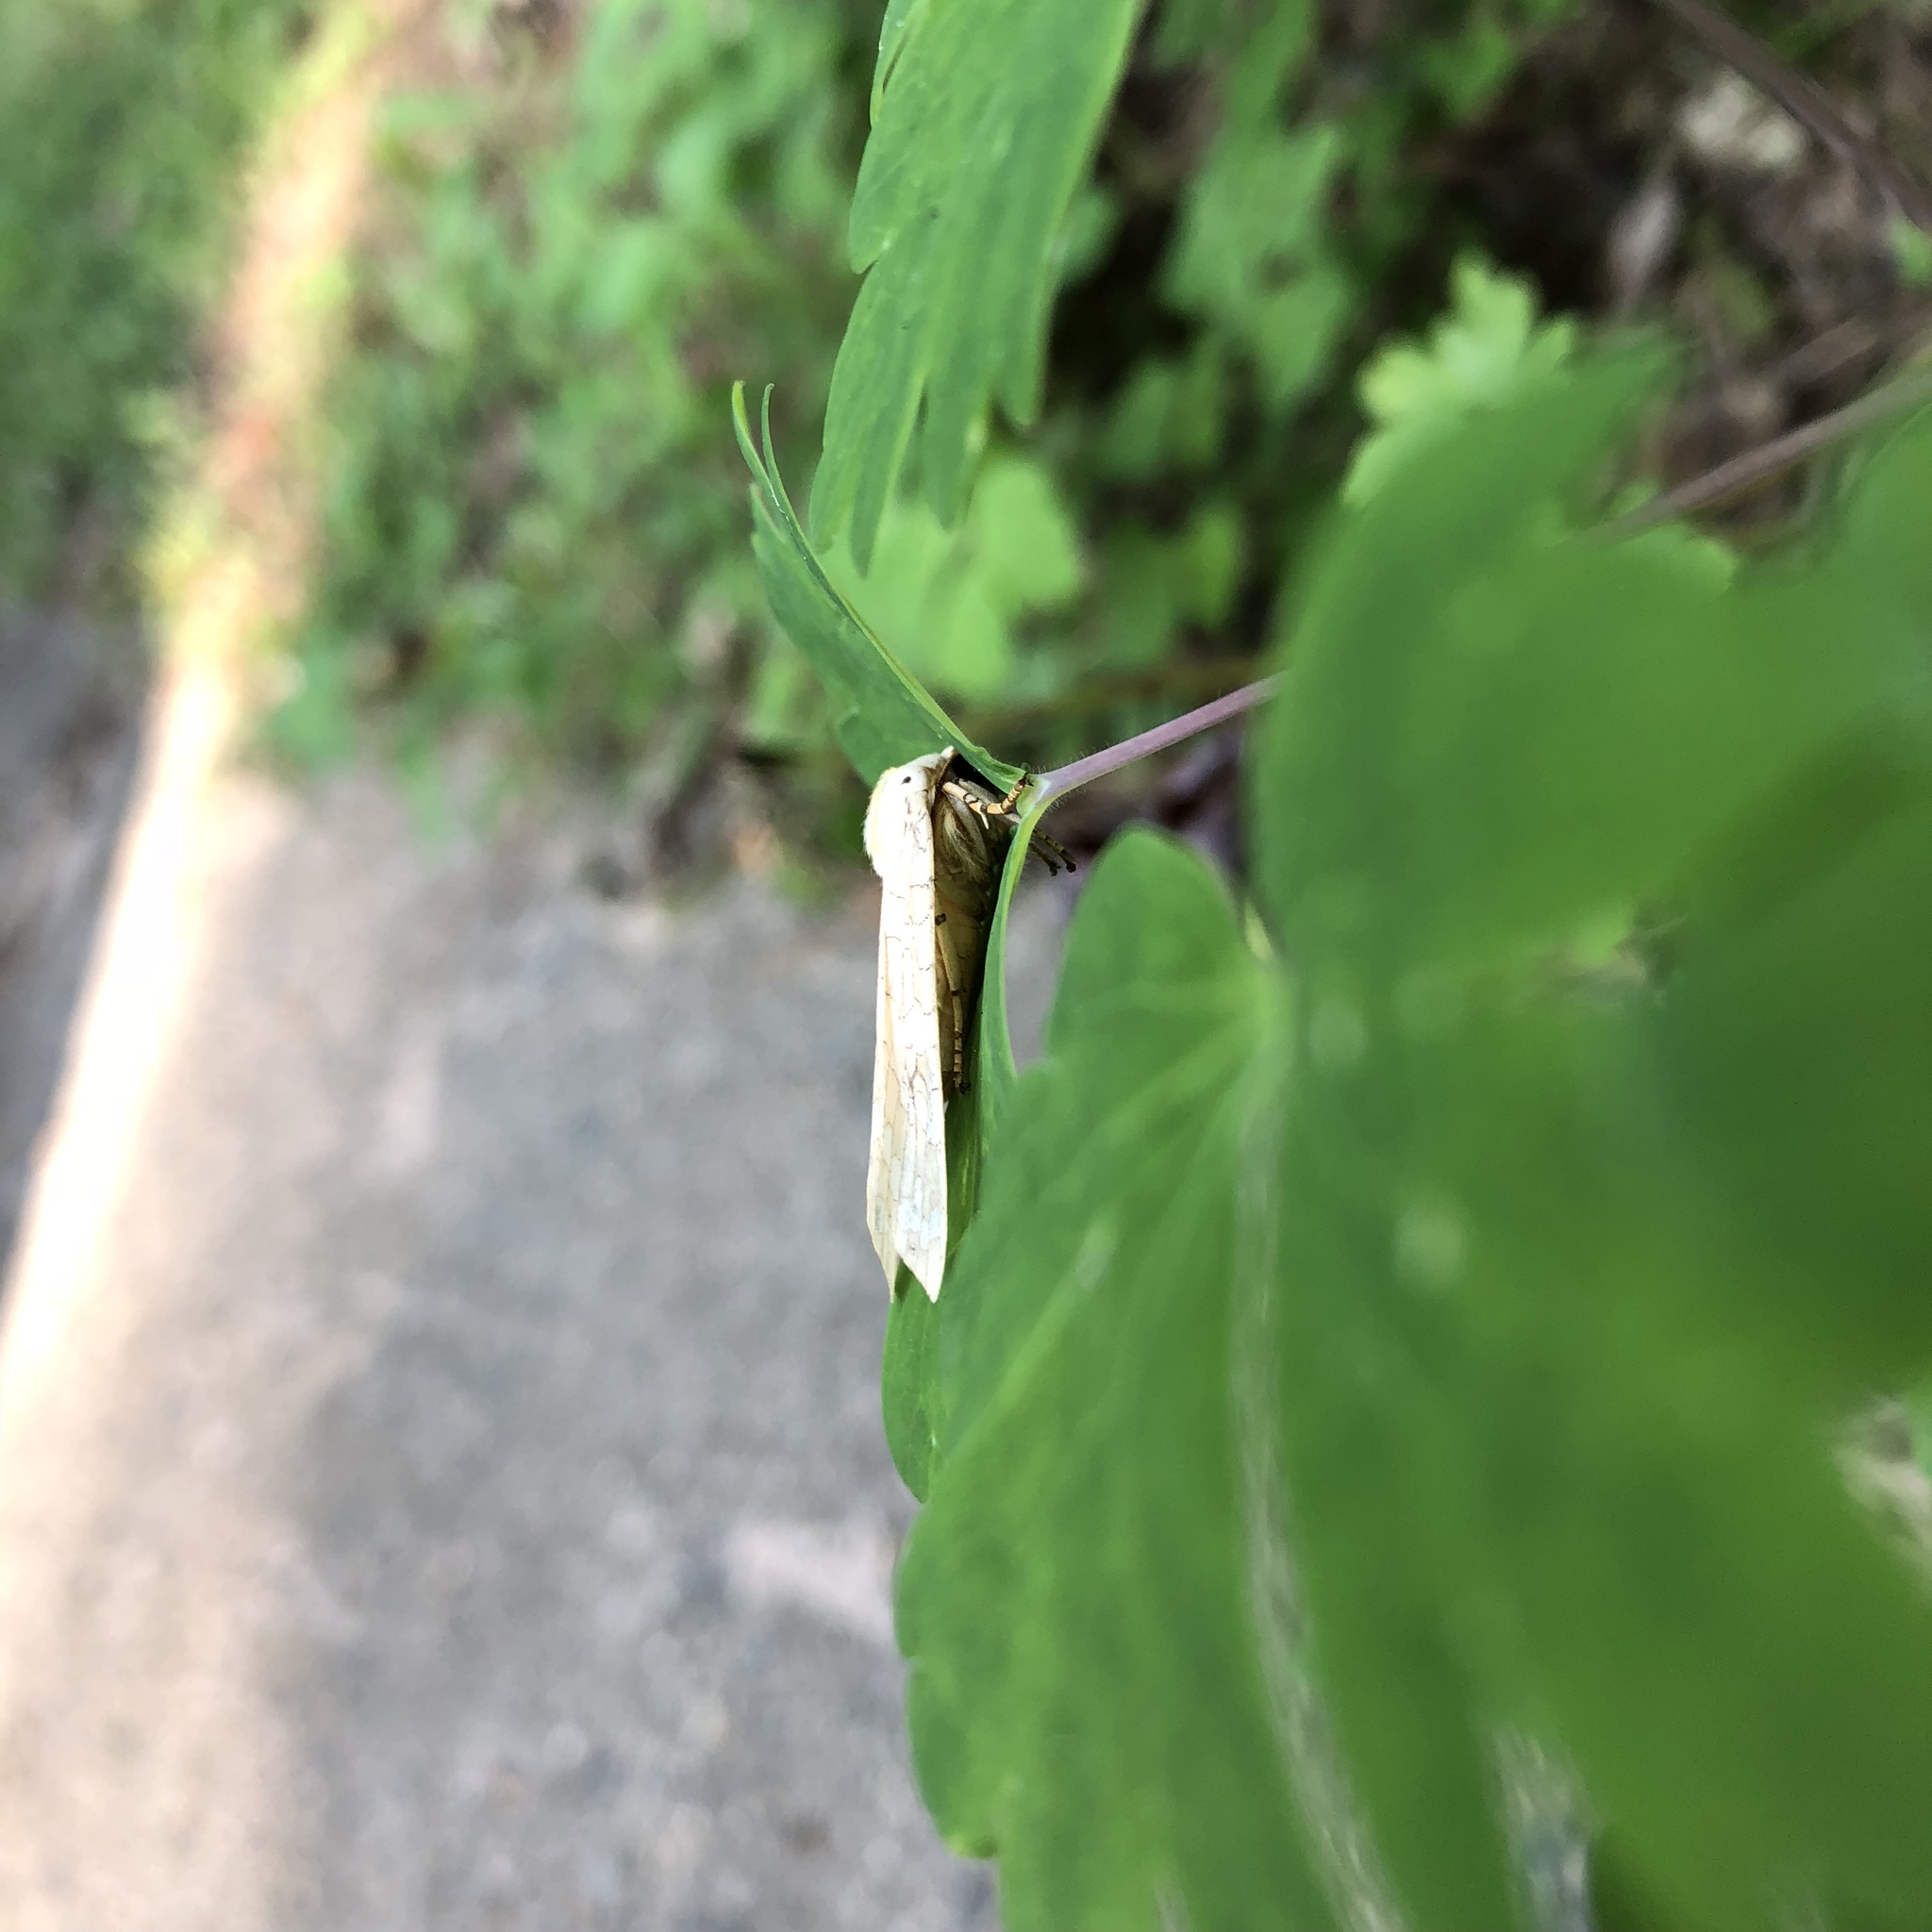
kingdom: Animalia
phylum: Arthropoda
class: Insecta
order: Lepidoptera
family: Erebidae
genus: Halysidota
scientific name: Halysidota
